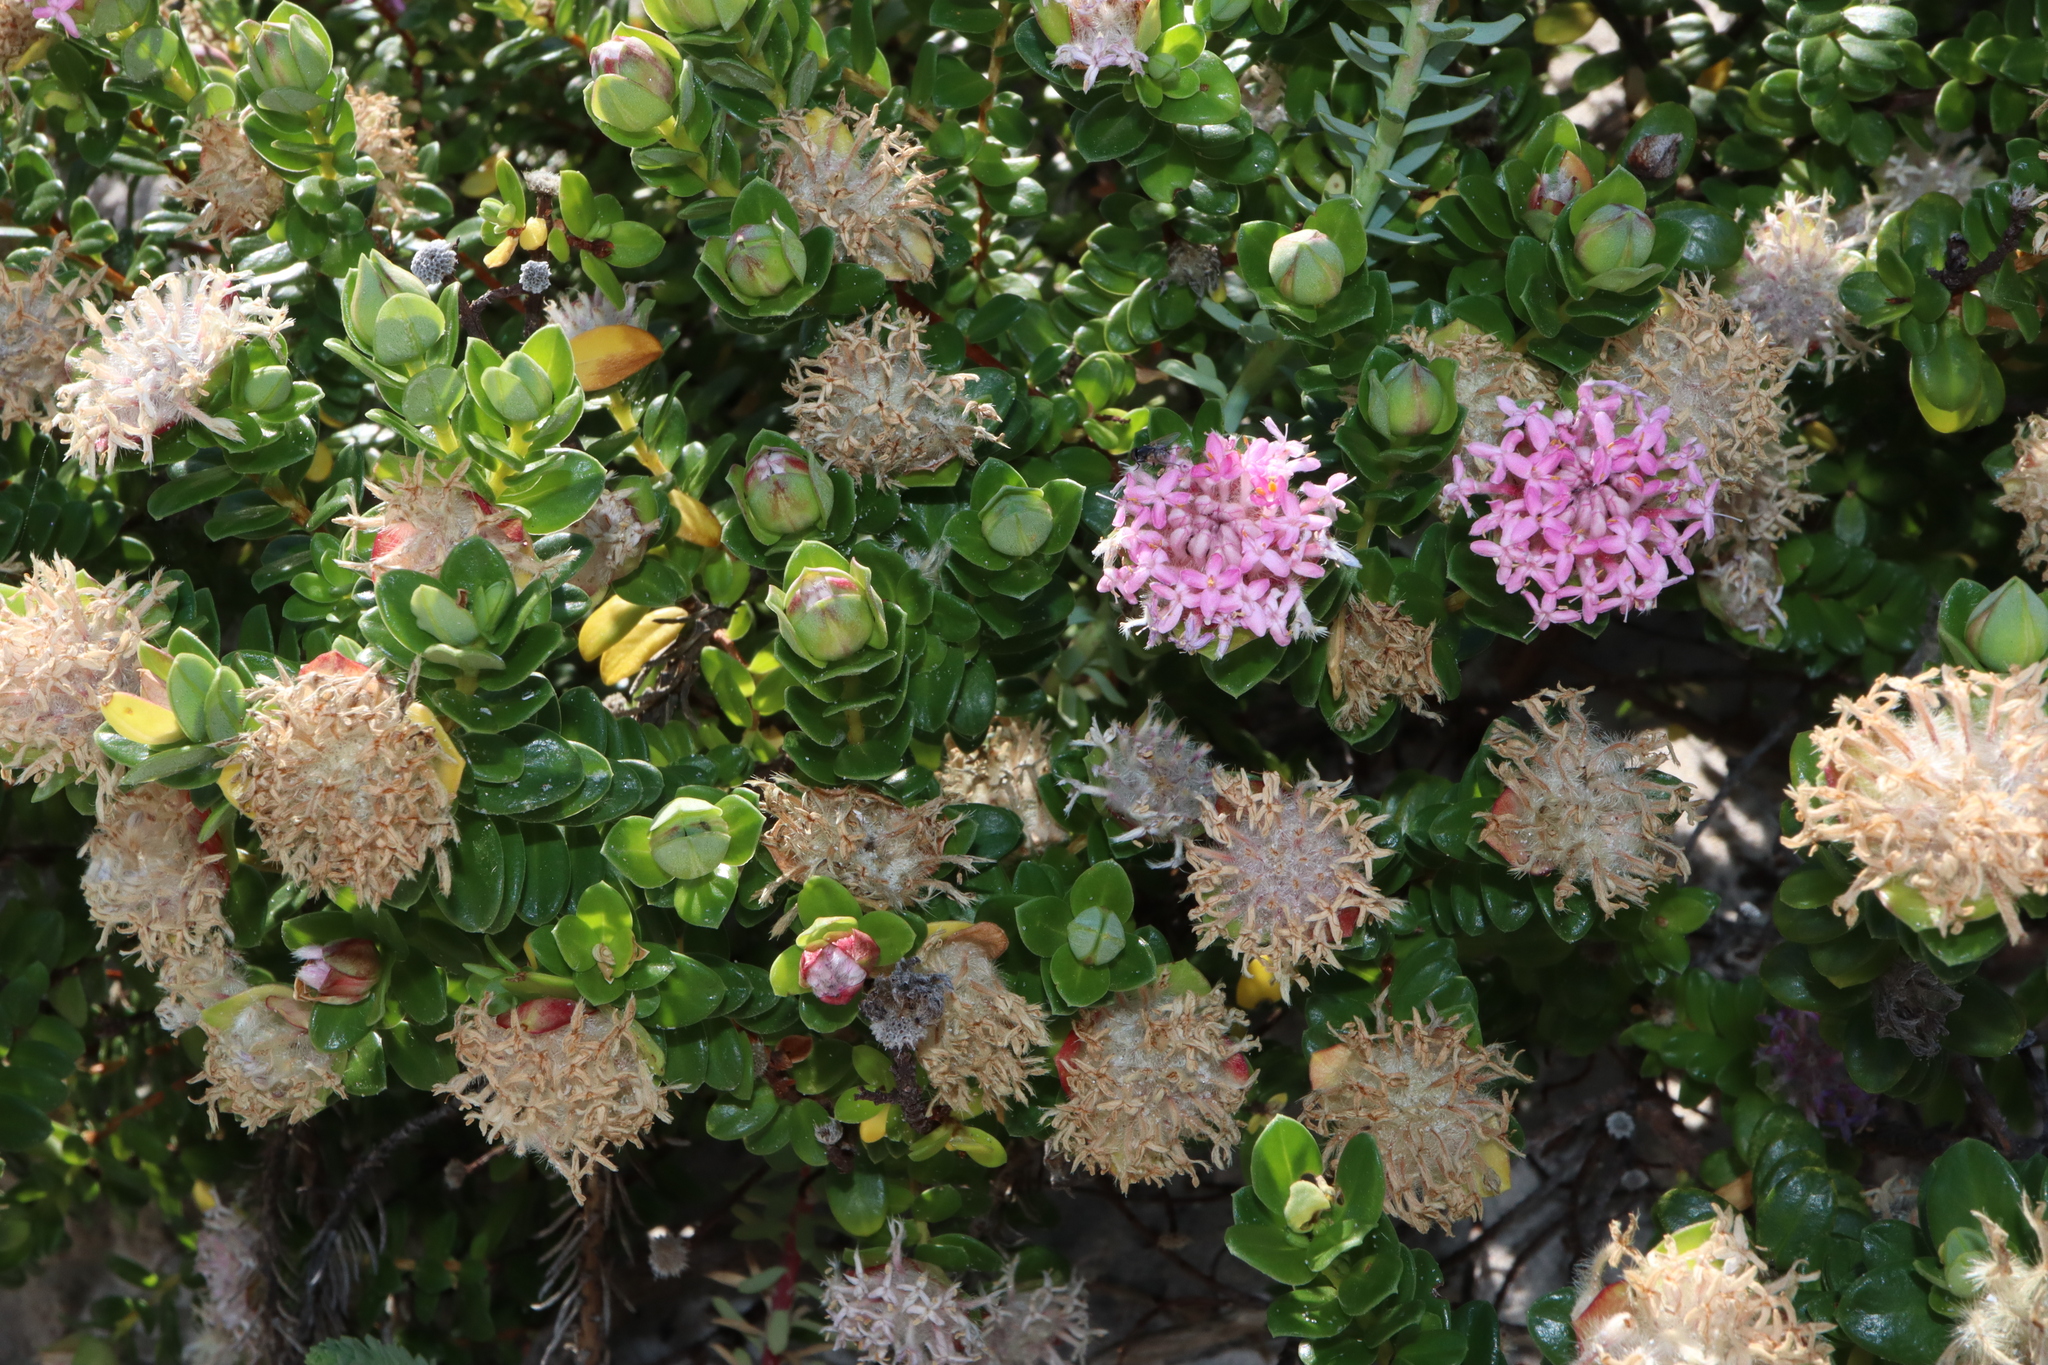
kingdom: Plantae
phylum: Tracheophyta
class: Magnoliopsida
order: Malvales
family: Thymelaeaceae
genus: Pimelea
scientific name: Pimelea ferruginea
